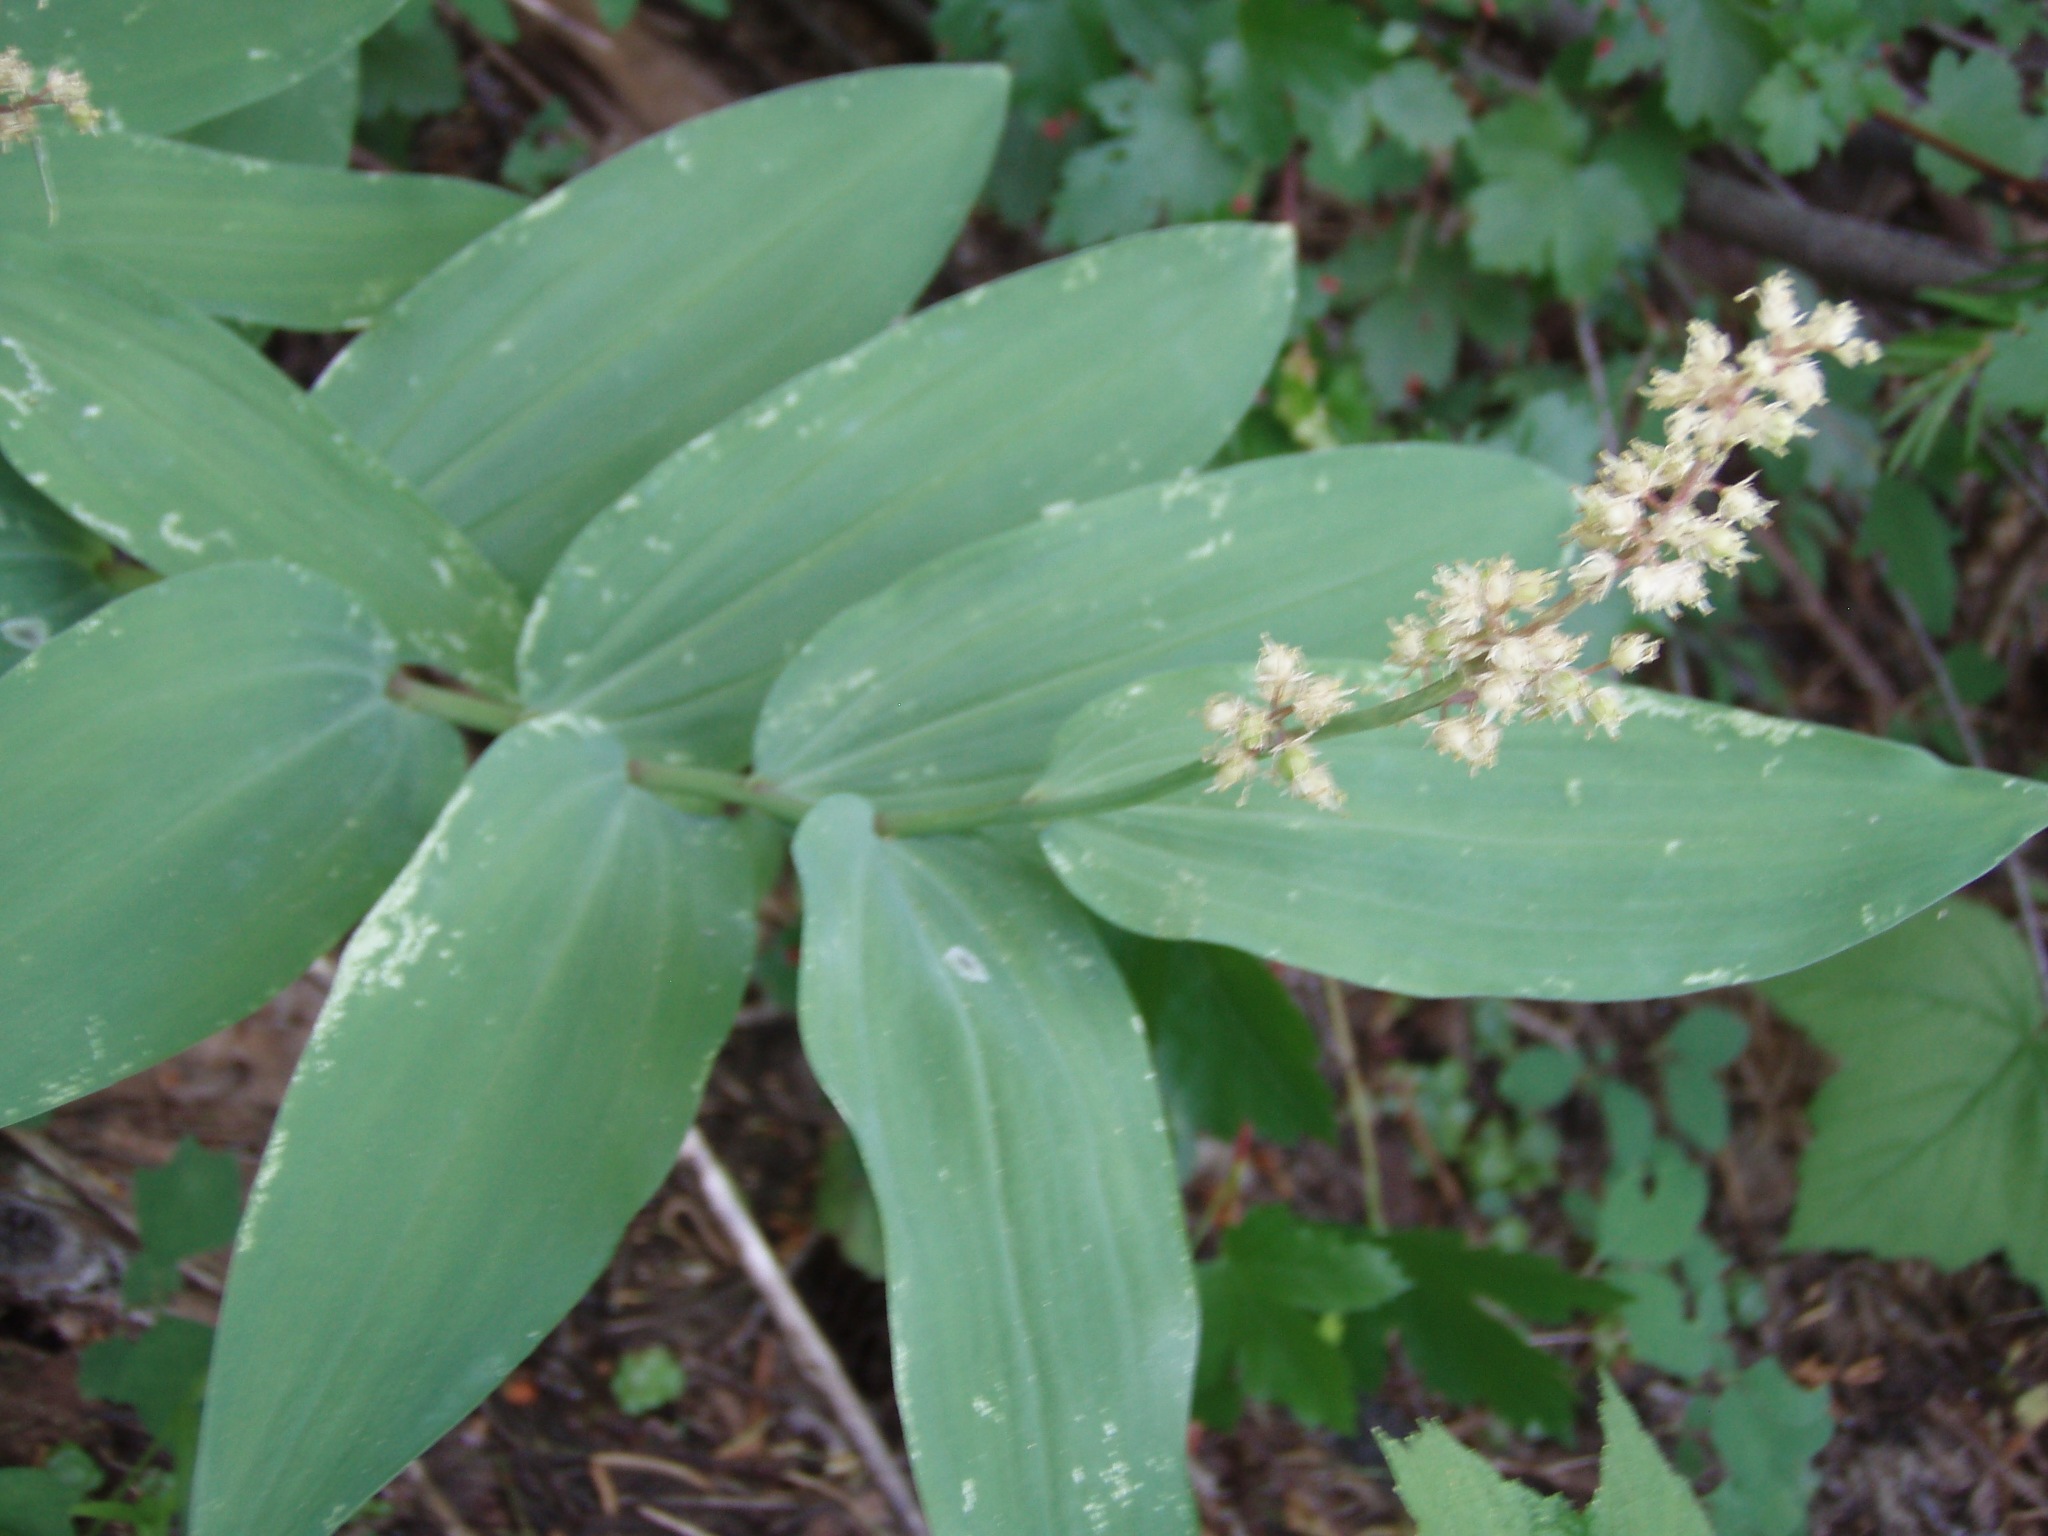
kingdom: Plantae
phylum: Tracheophyta
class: Liliopsida
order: Asparagales
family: Asparagaceae
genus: Maianthemum
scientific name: Maianthemum racemosum
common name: False spikenard
